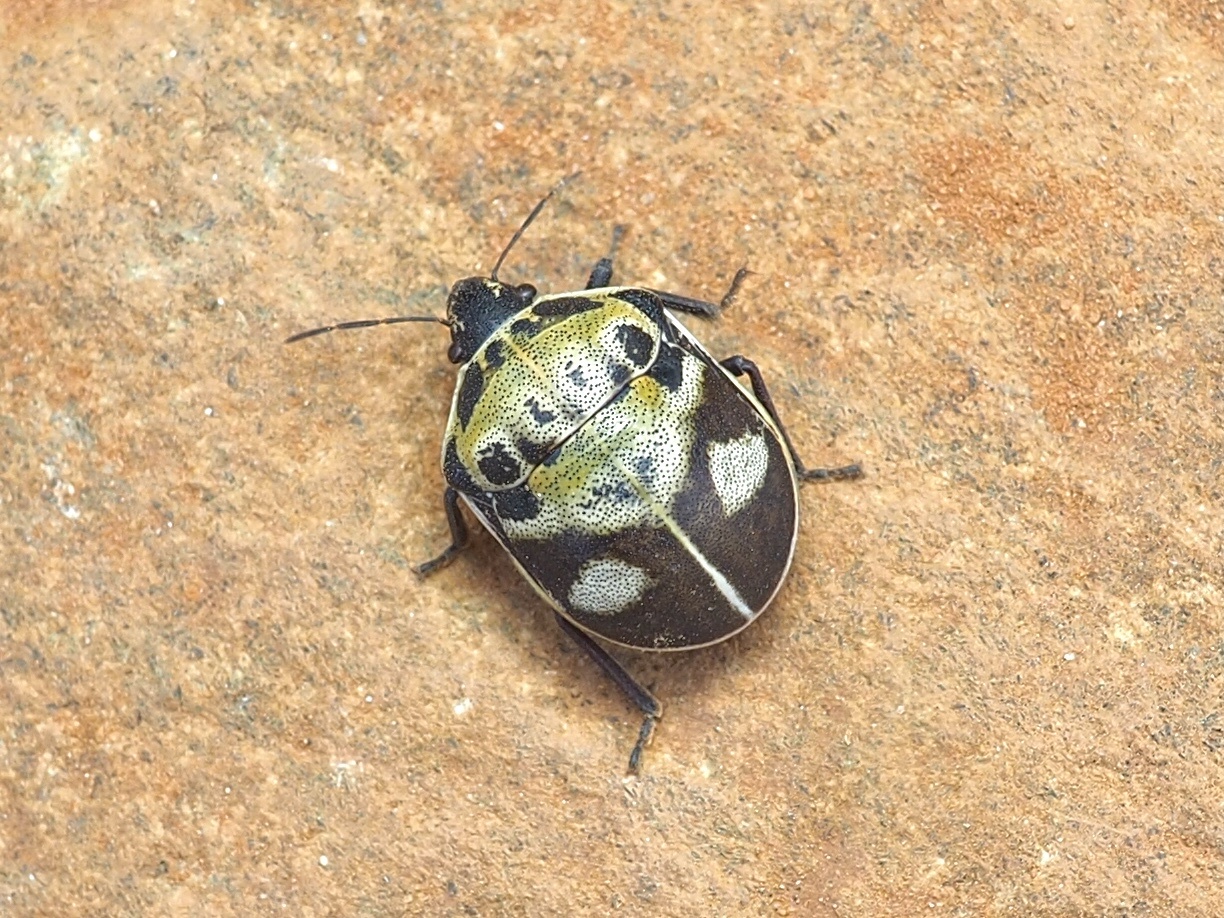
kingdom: Animalia
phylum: Arthropoda
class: Insecta
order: Hemiptera
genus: Deroplax
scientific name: Deroplax silphoides
